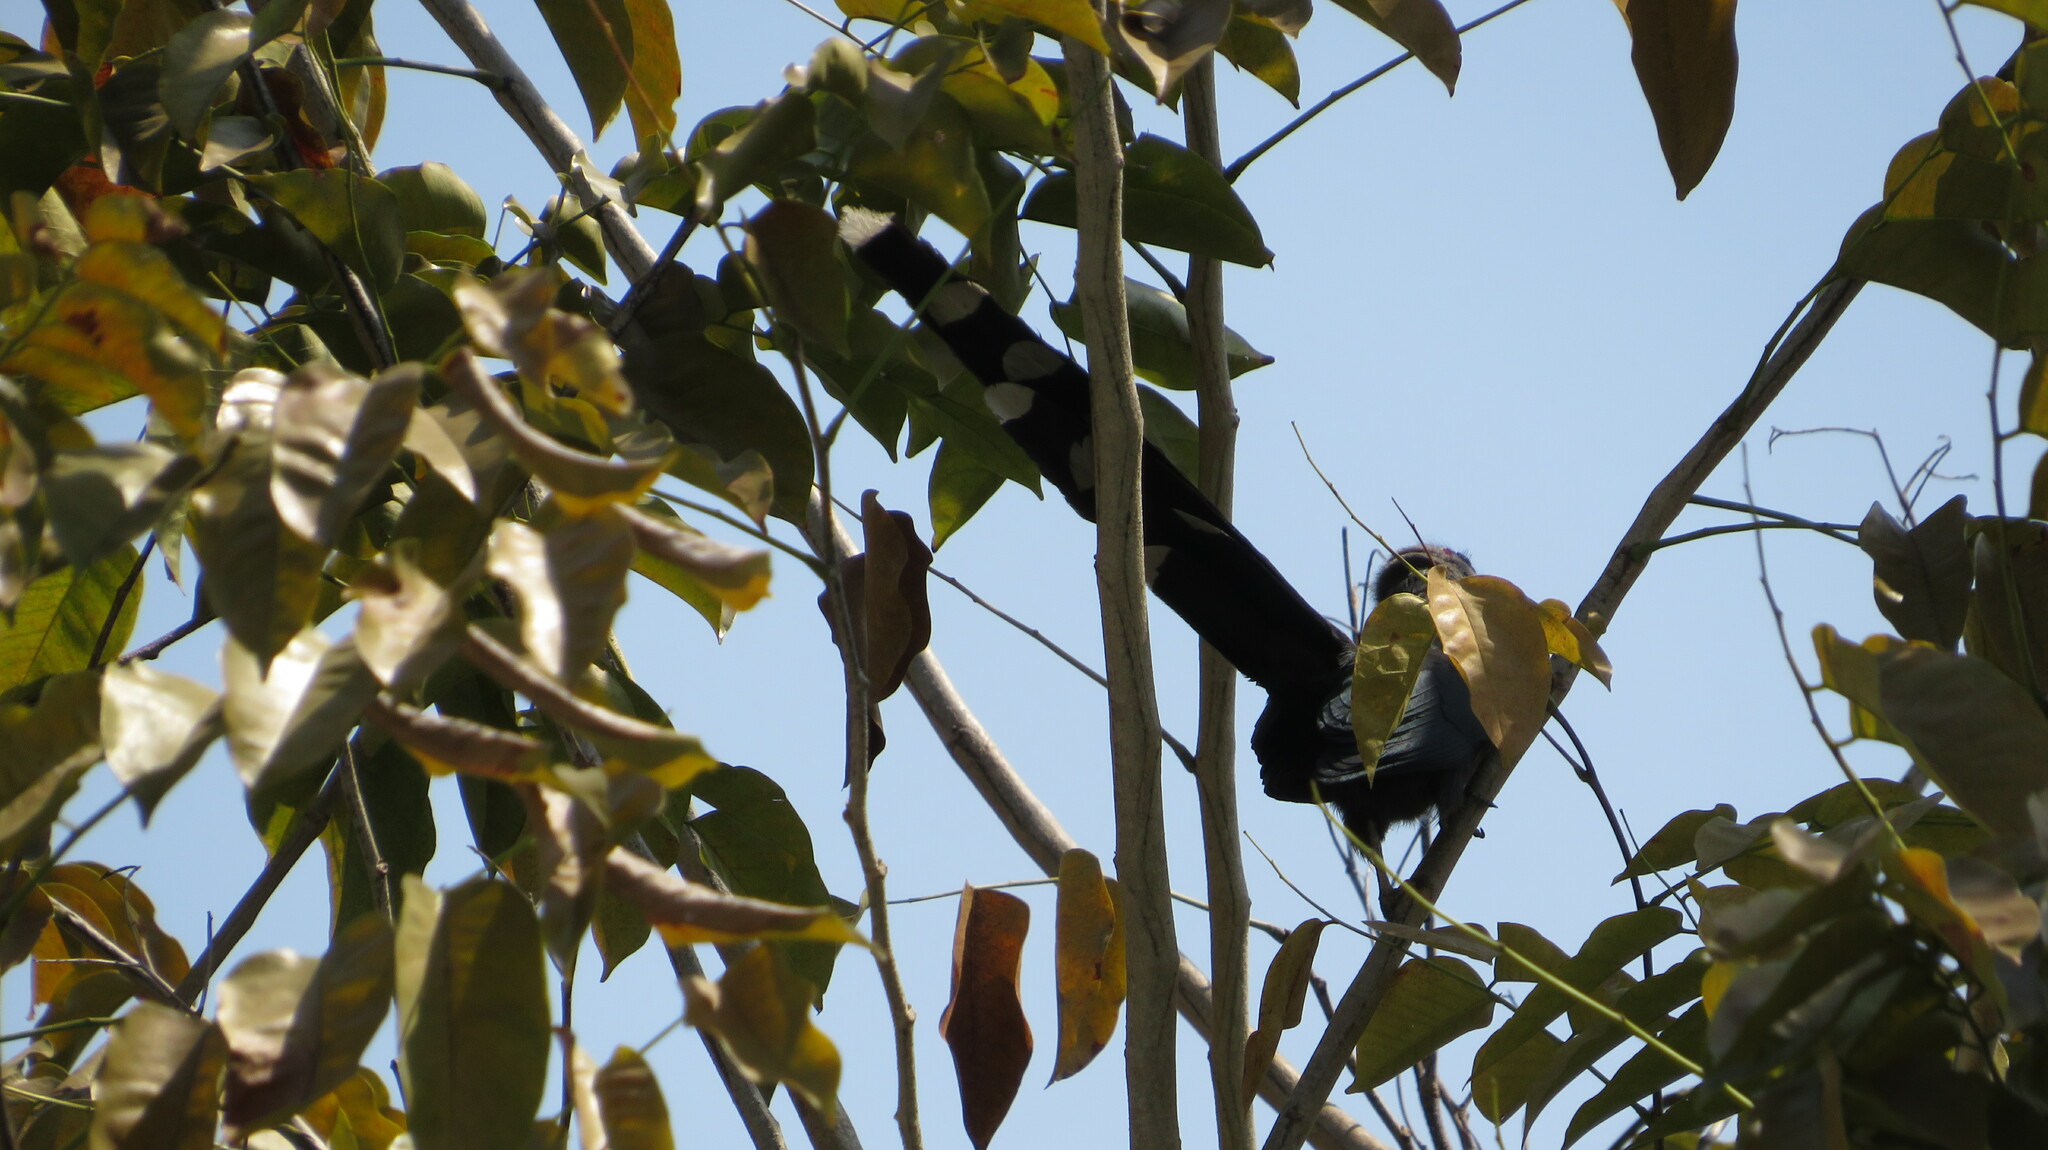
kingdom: Animalia
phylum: Chordata
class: Aves
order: Cuculiformes
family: Cuculidae
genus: Rhopodytes
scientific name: Rhopodytes tristis
